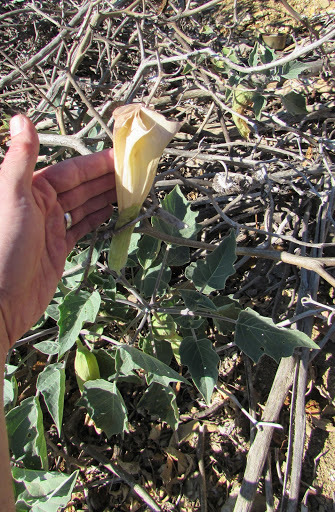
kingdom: Plantae
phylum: Tracheophyta
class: Magnoliopsida
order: Solanales
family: Solanaceae
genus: Datura
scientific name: Datura wrightii
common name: Sacred thorn-apple
